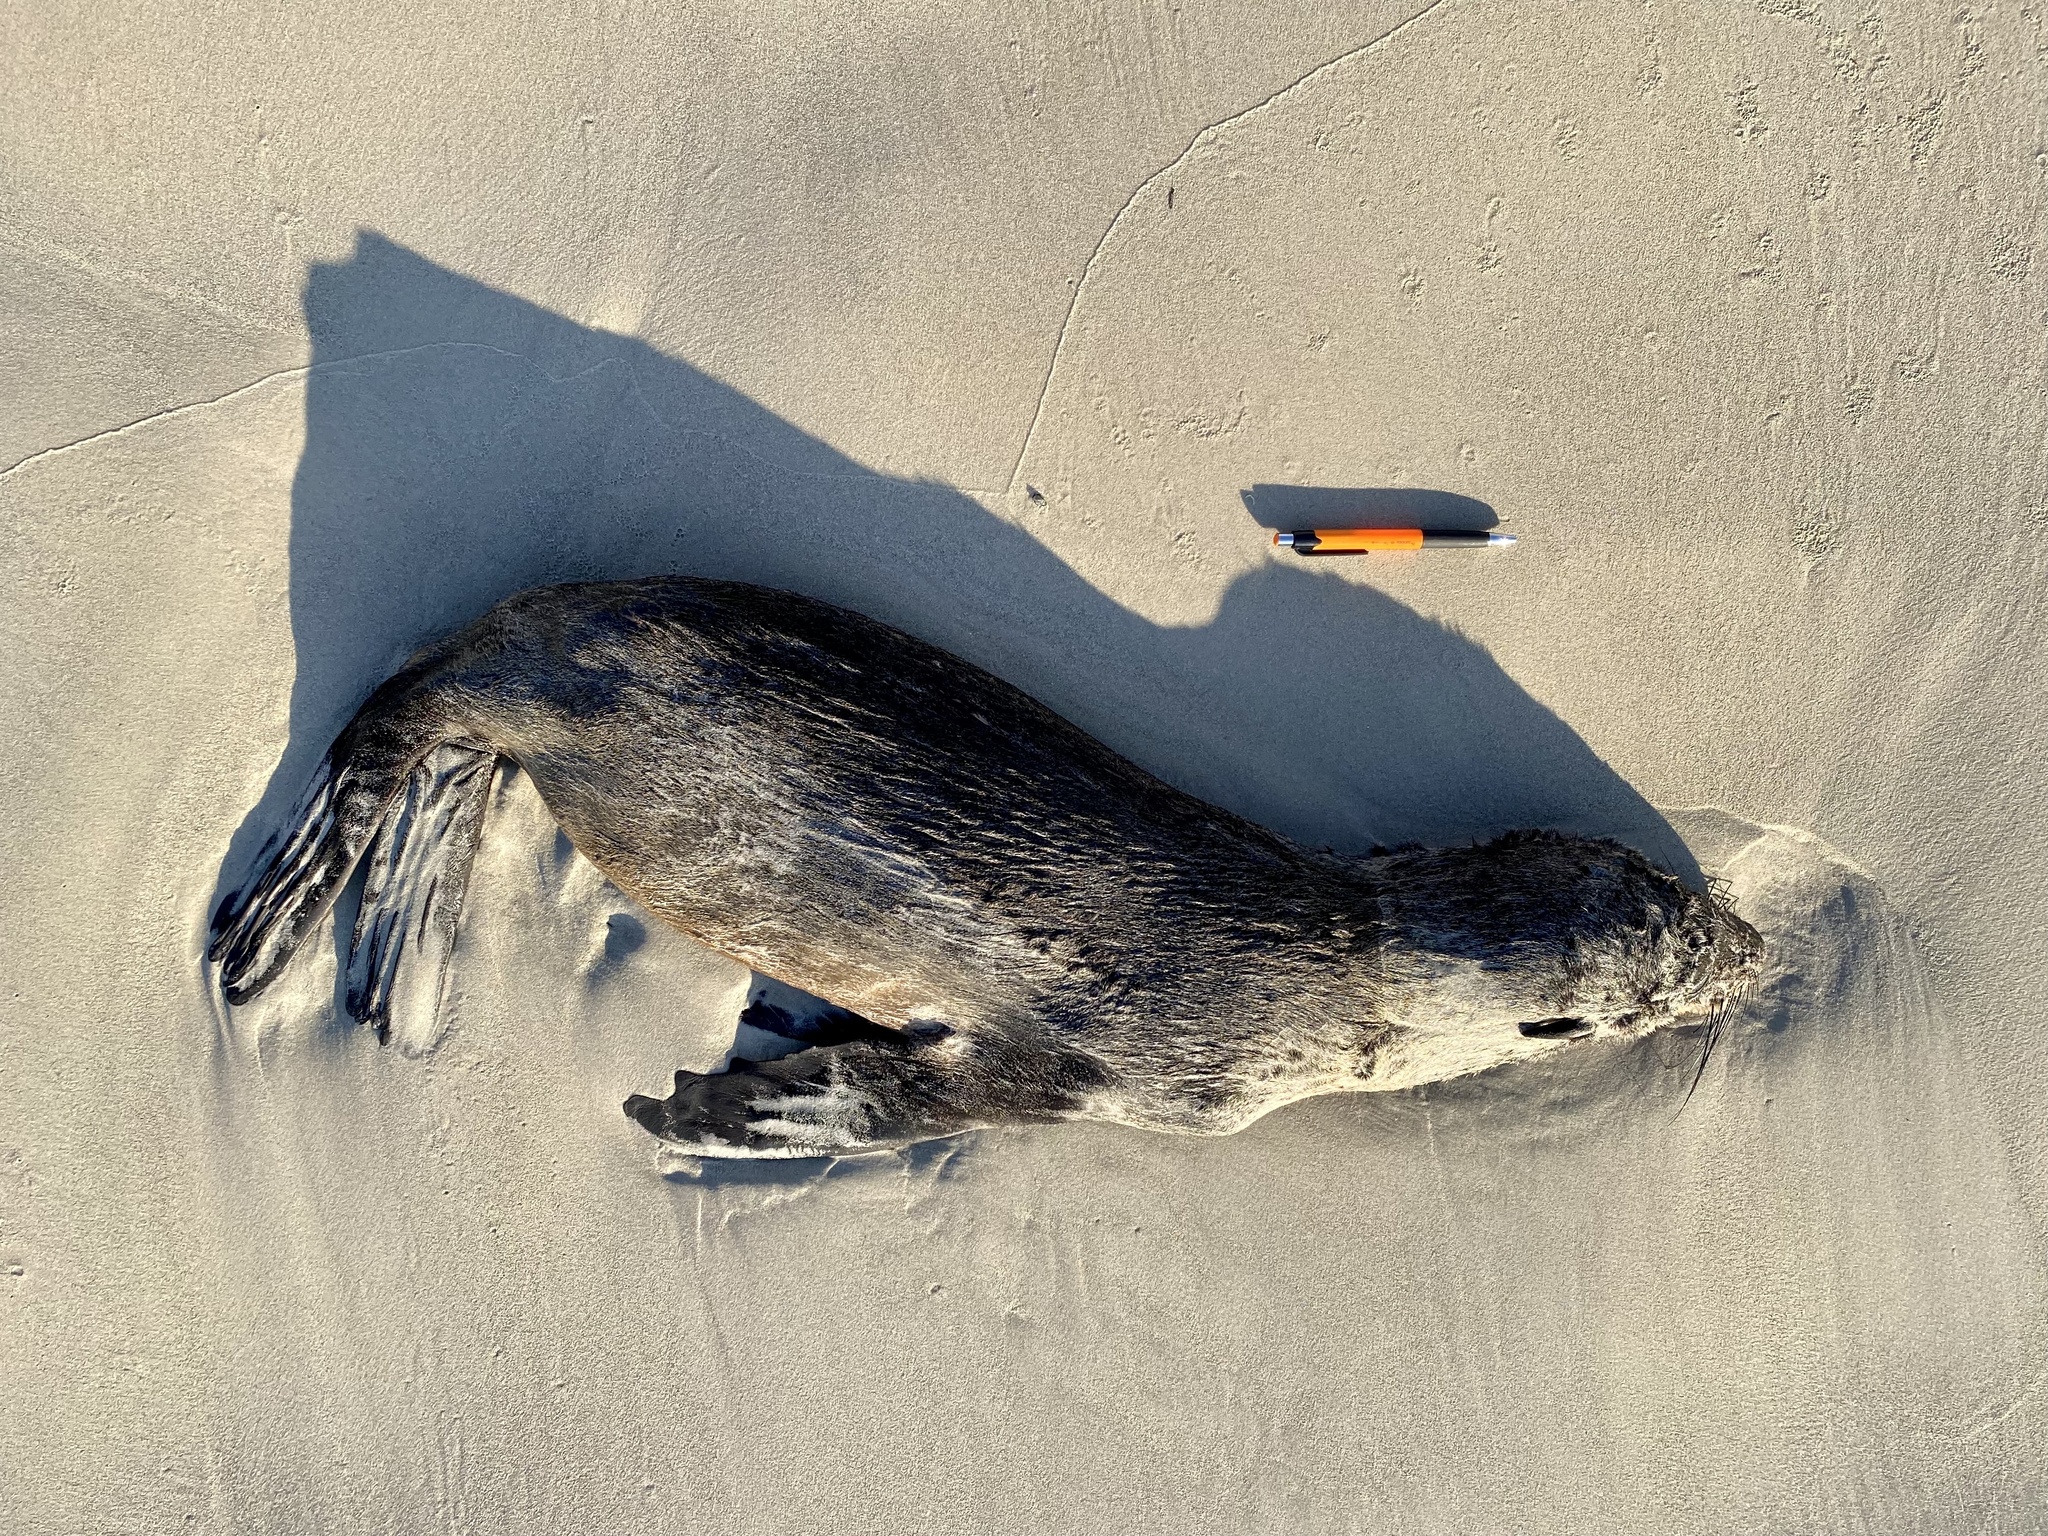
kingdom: Animalia
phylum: Chordata
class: Mammalia
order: Carnivora
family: Otariidae
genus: Arctocephalus
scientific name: Arctocephalus pusillus
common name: Brown fur seal
